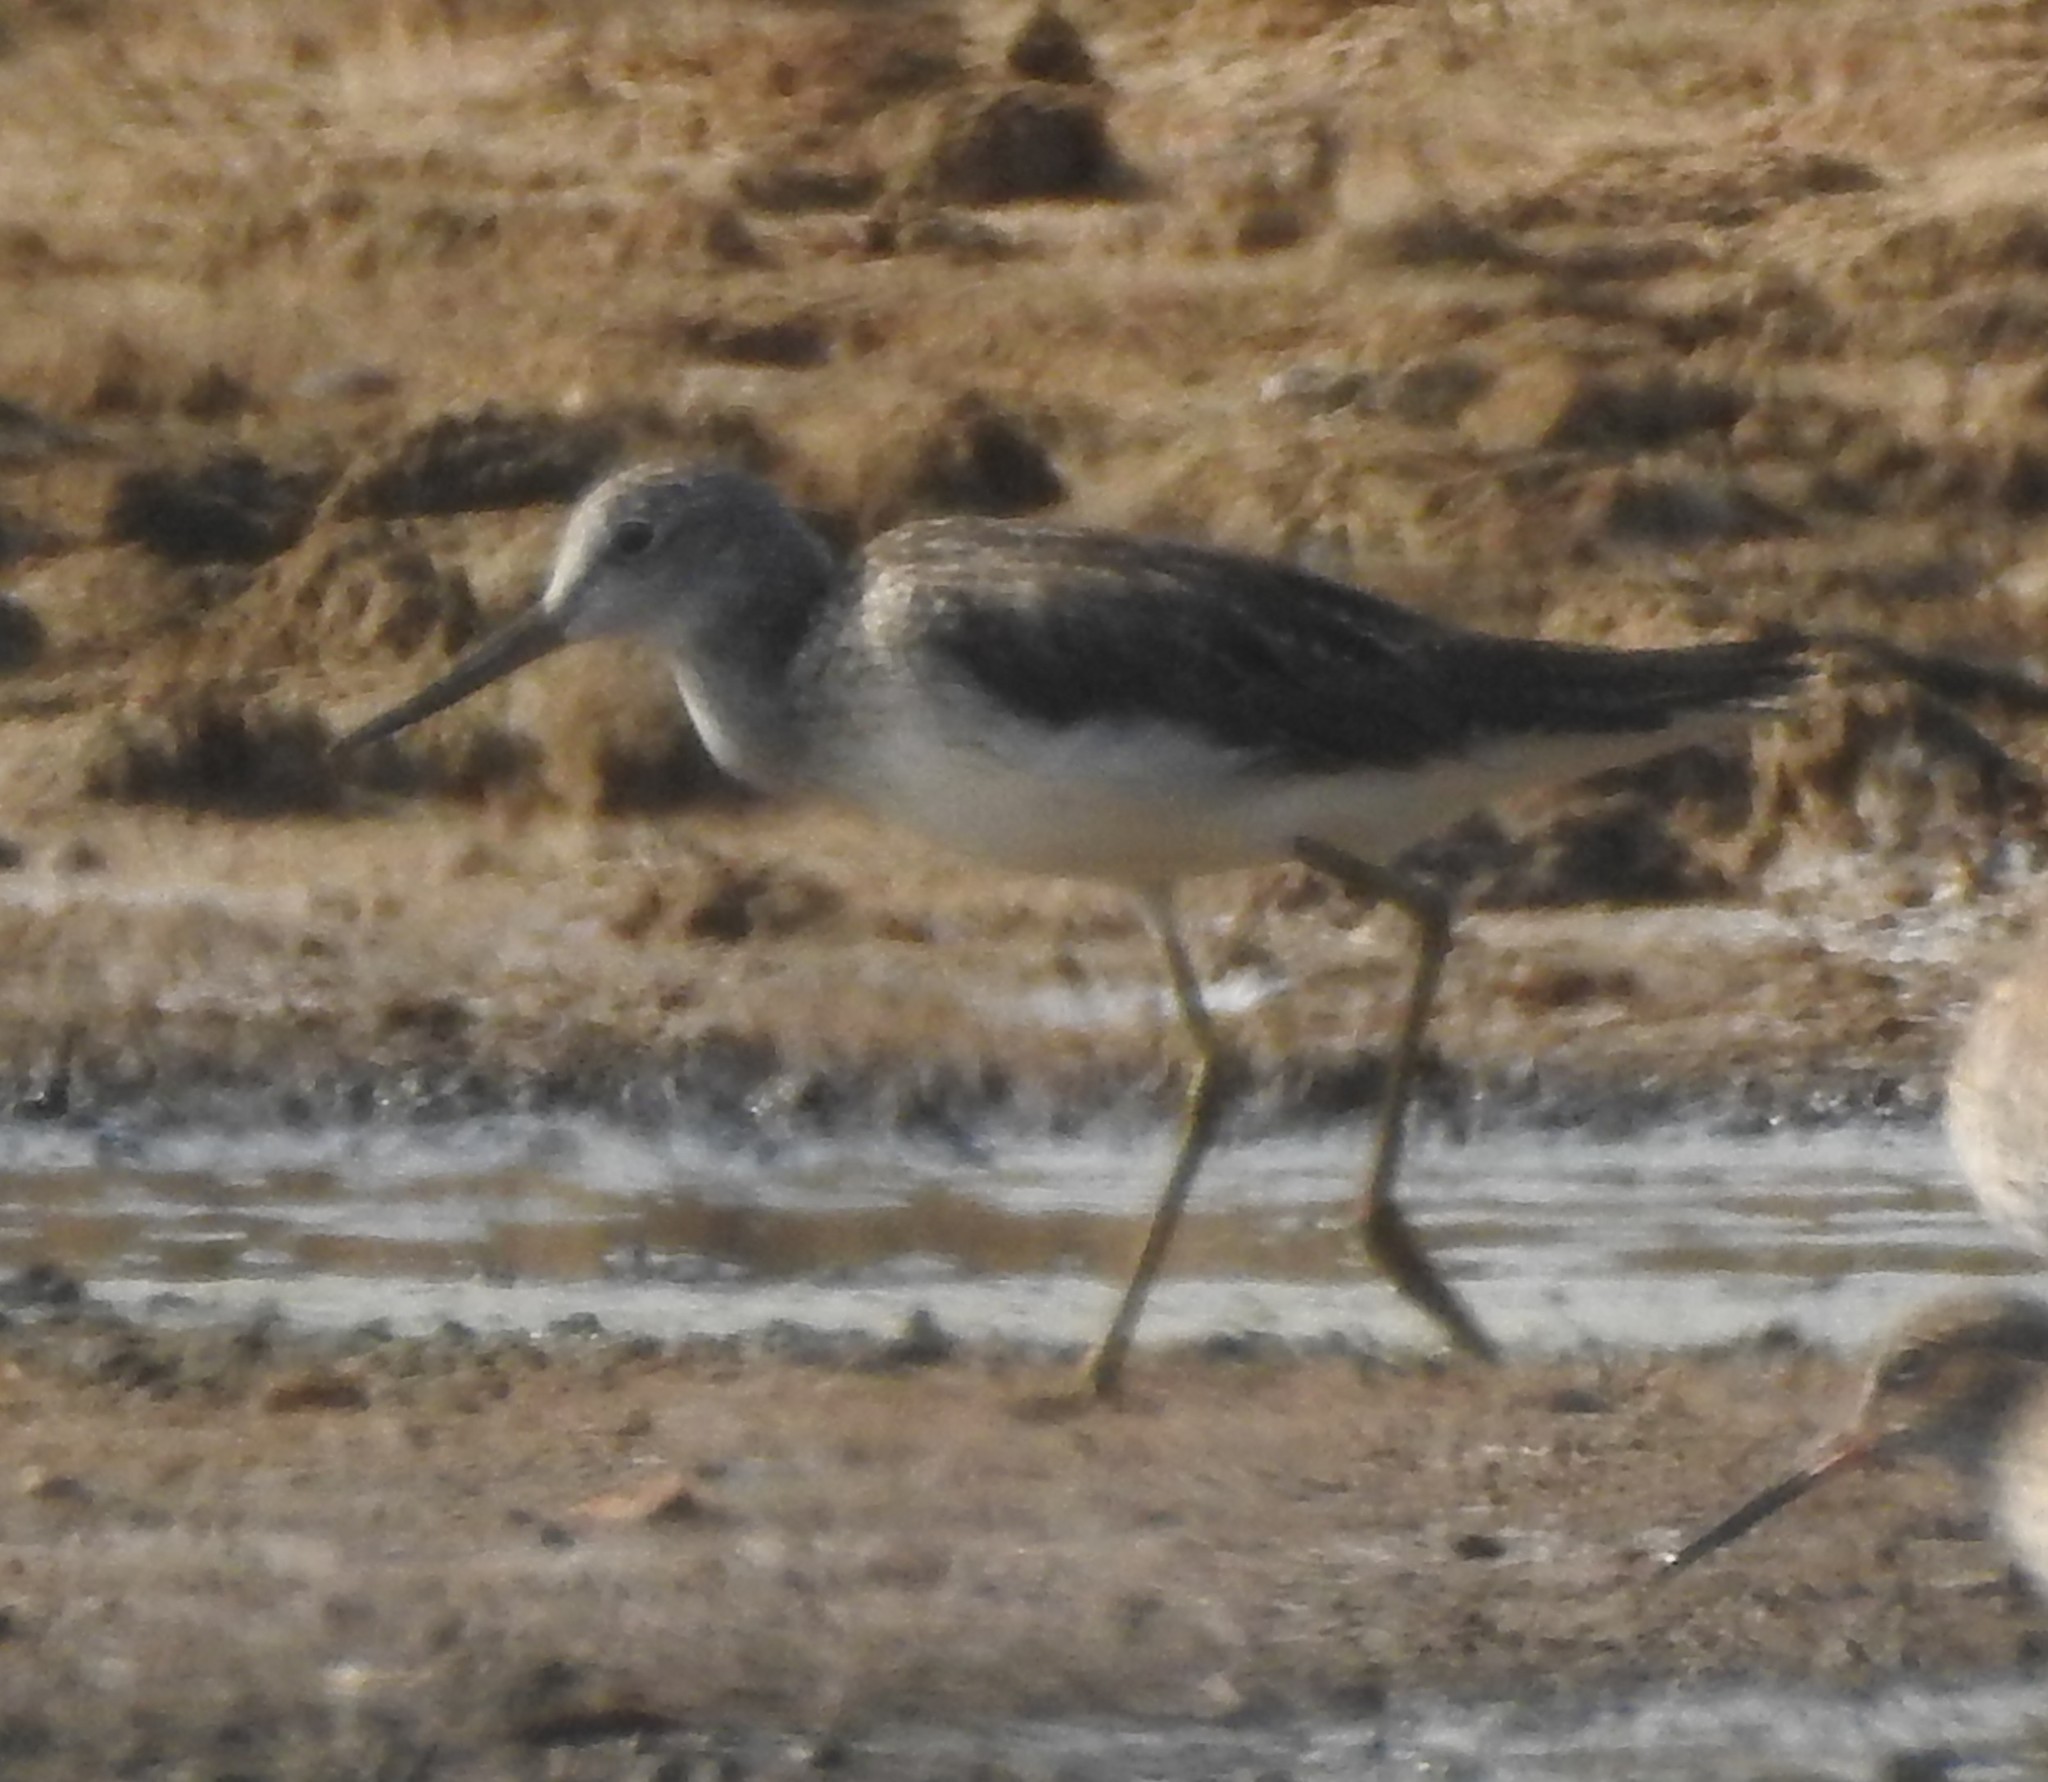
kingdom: Animalia
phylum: Chordata
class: Aves
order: Charadriiformes
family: Scolopacidae
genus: Tringa
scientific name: Tringa nebularia
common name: Common greenshank
